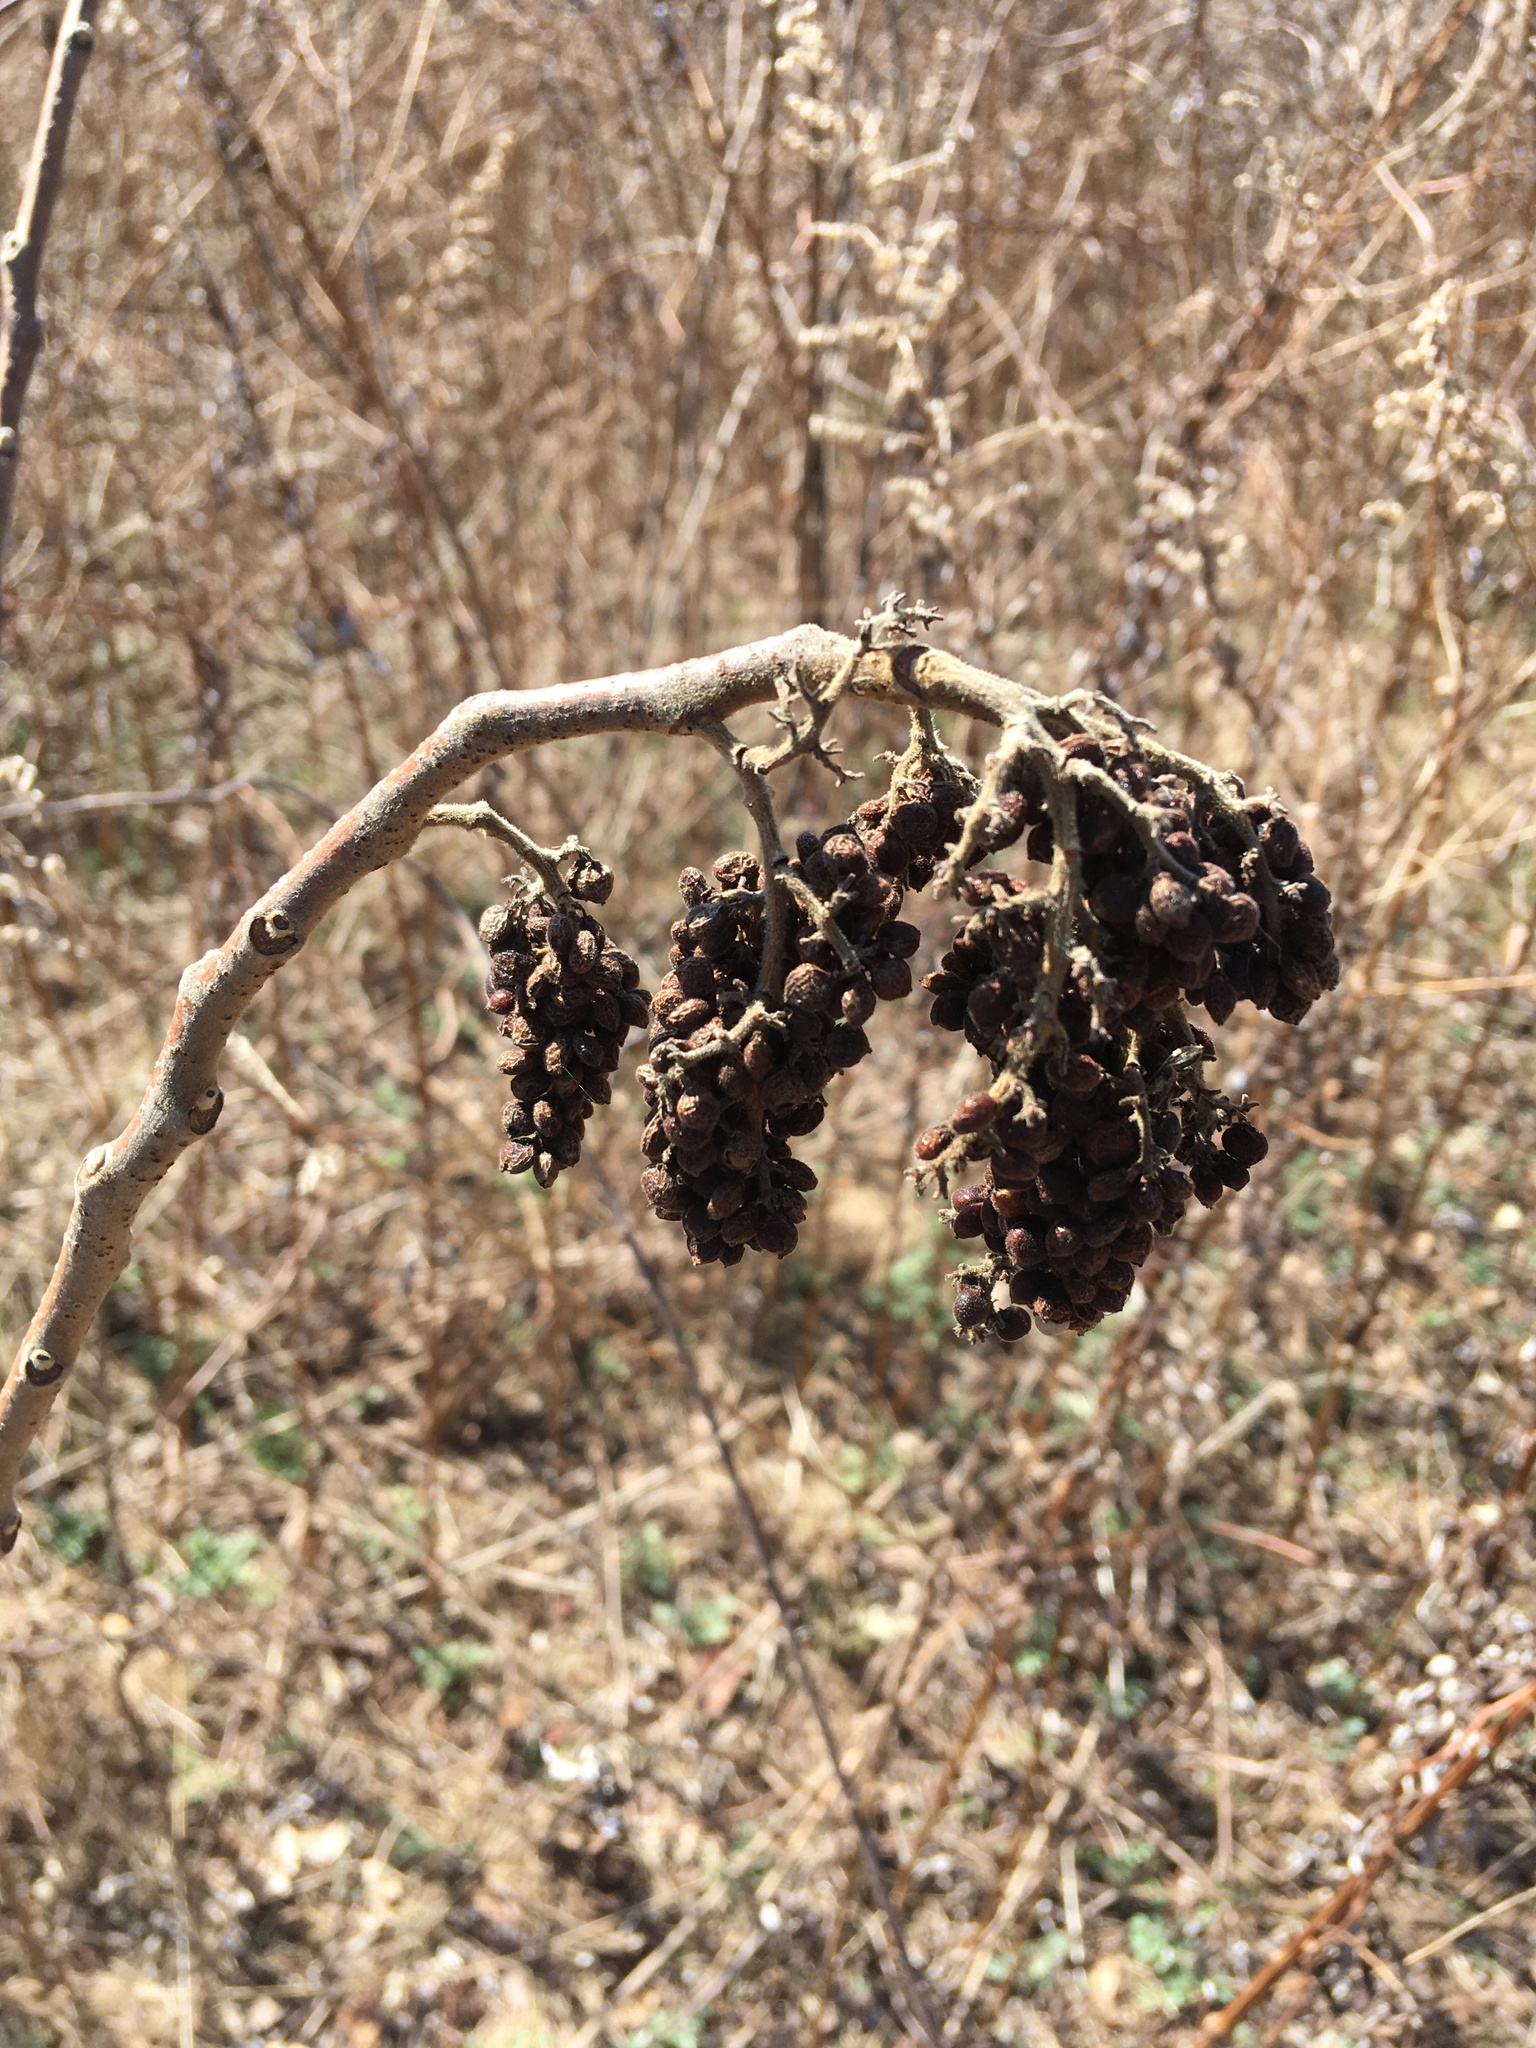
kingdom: Plantae
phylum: Tracheophyta
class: Magnoliopsida
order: Sapindales
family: Anacardiaceae
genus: Rhus
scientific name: Rhus copallina
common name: Shining sumac
